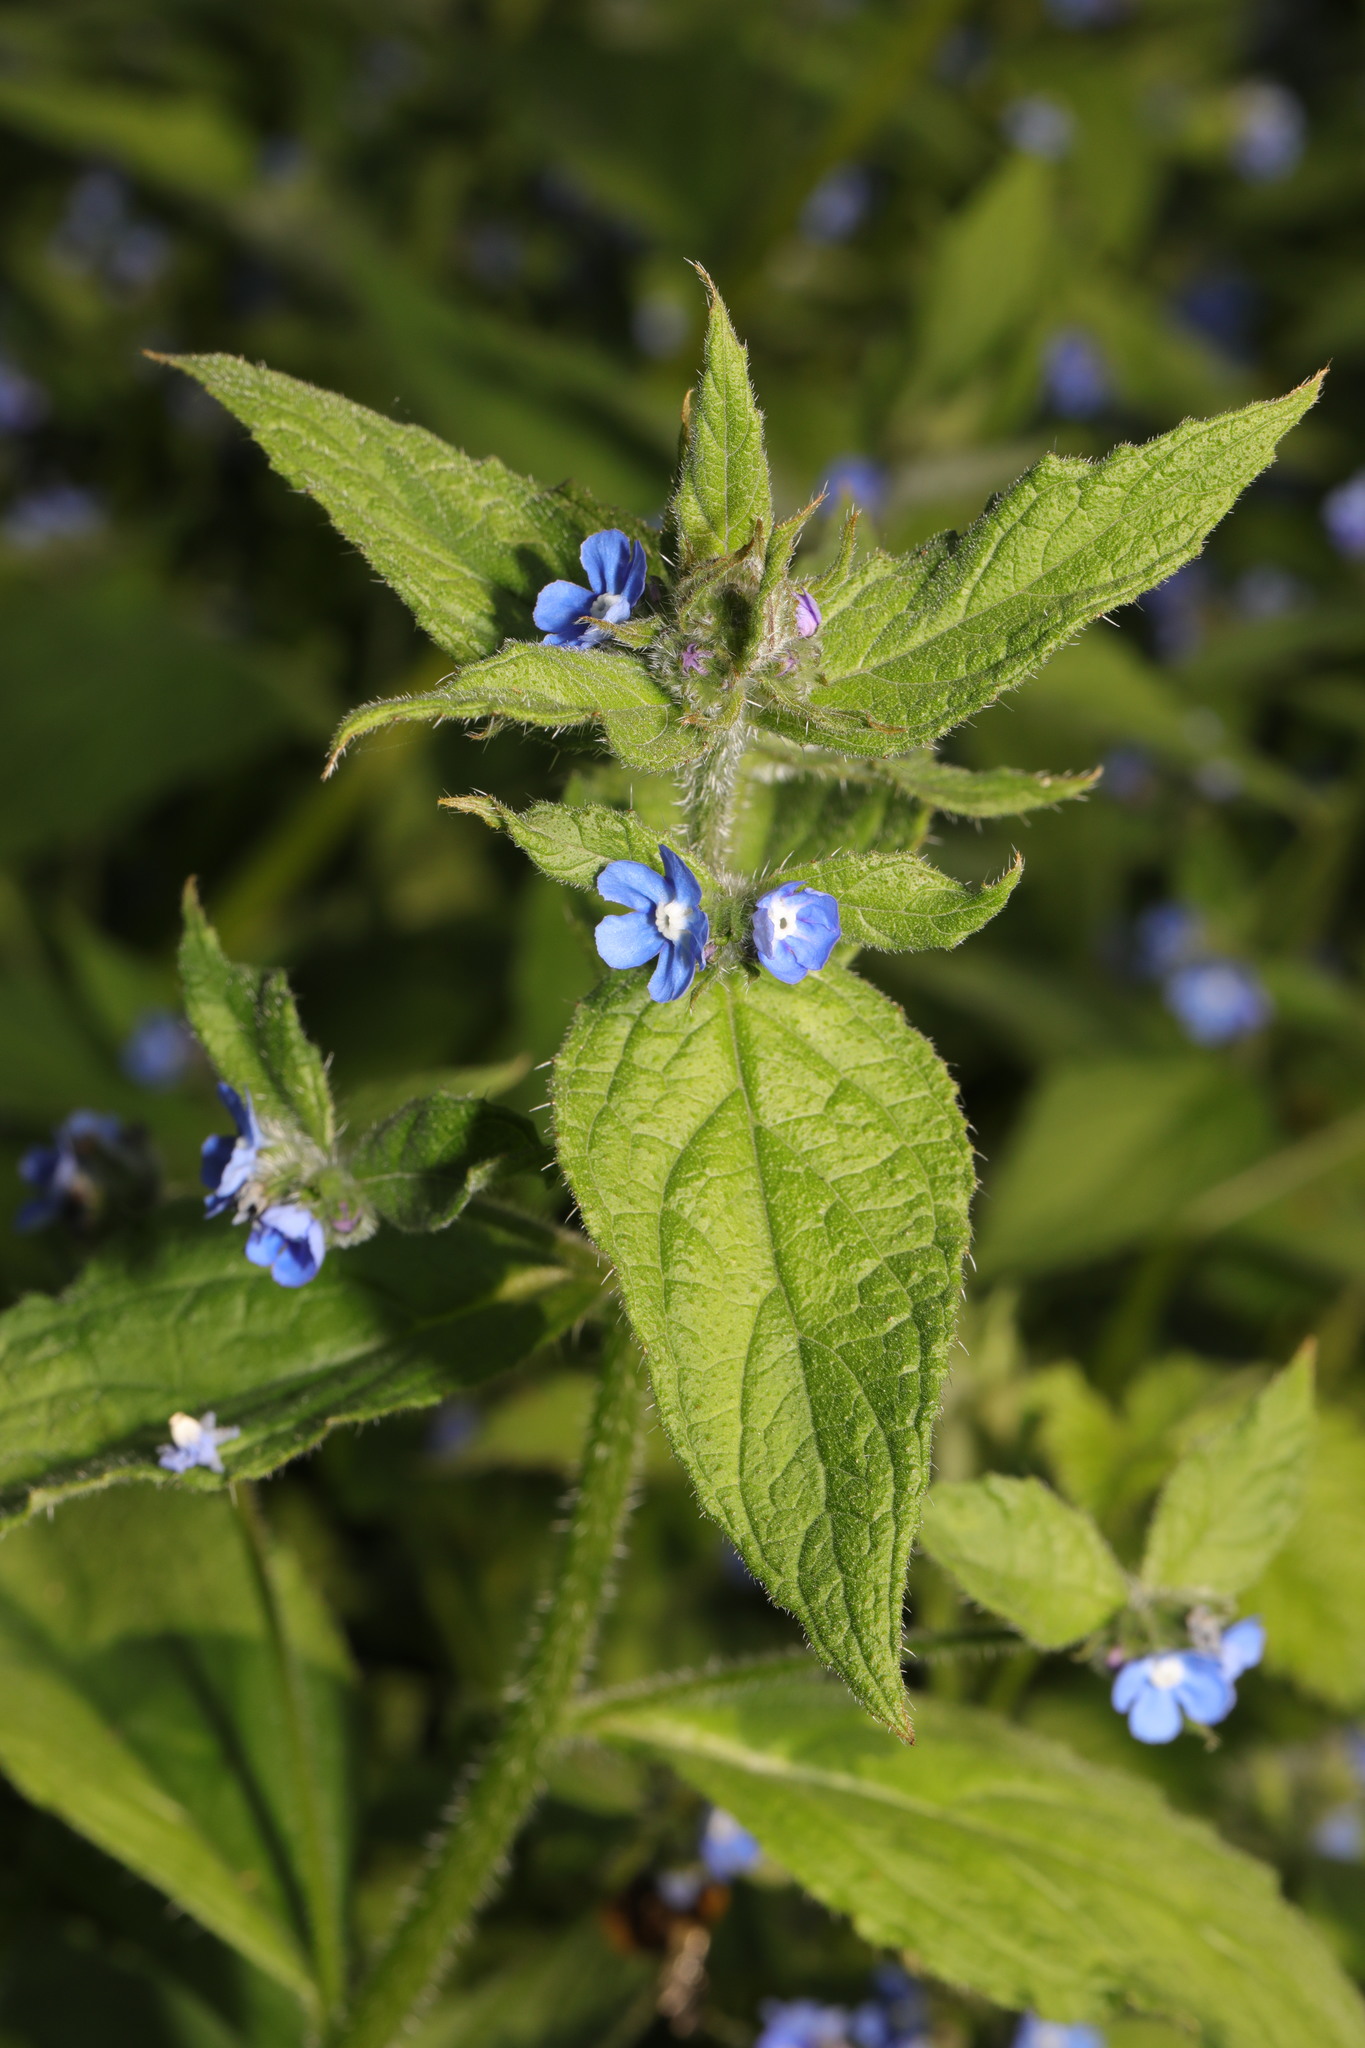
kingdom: Plantae
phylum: Tracheophyta
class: Magnoliopsida
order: Boraginales
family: Boraginaceae
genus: Pentaglottis
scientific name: Pentaglottis sempervirens
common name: Green alkanet
